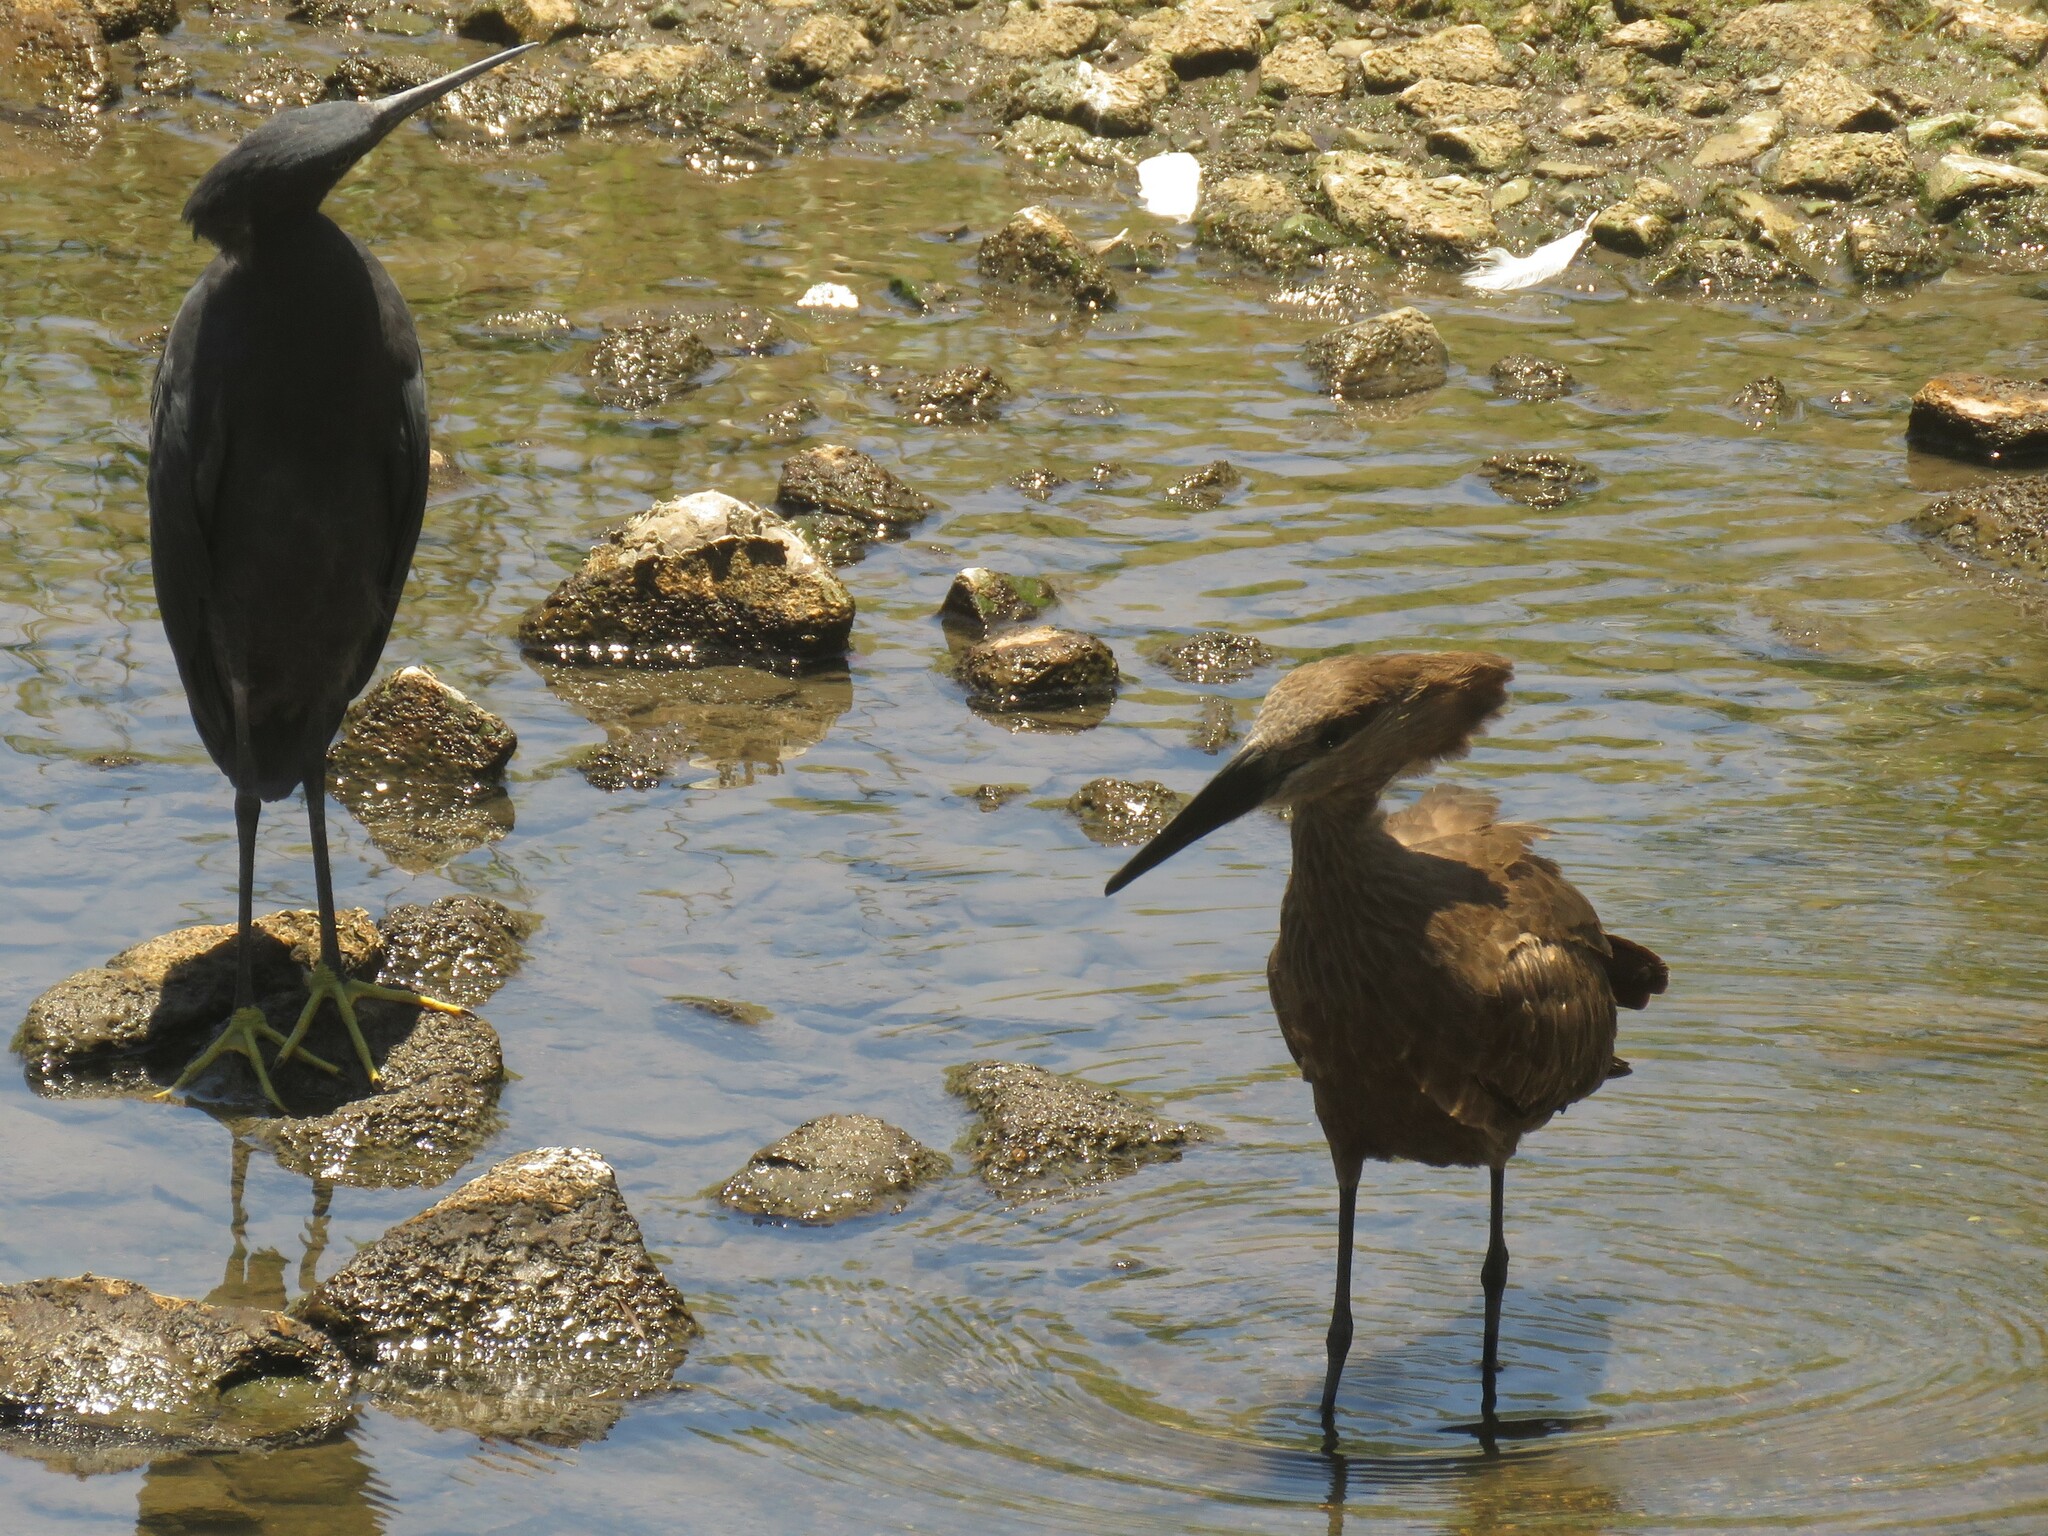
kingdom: Animalia
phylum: Chordata
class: Aves
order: Pelecaniformes
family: Scopidae
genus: Scopus
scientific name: Scopus umbretta
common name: Hamerkop
